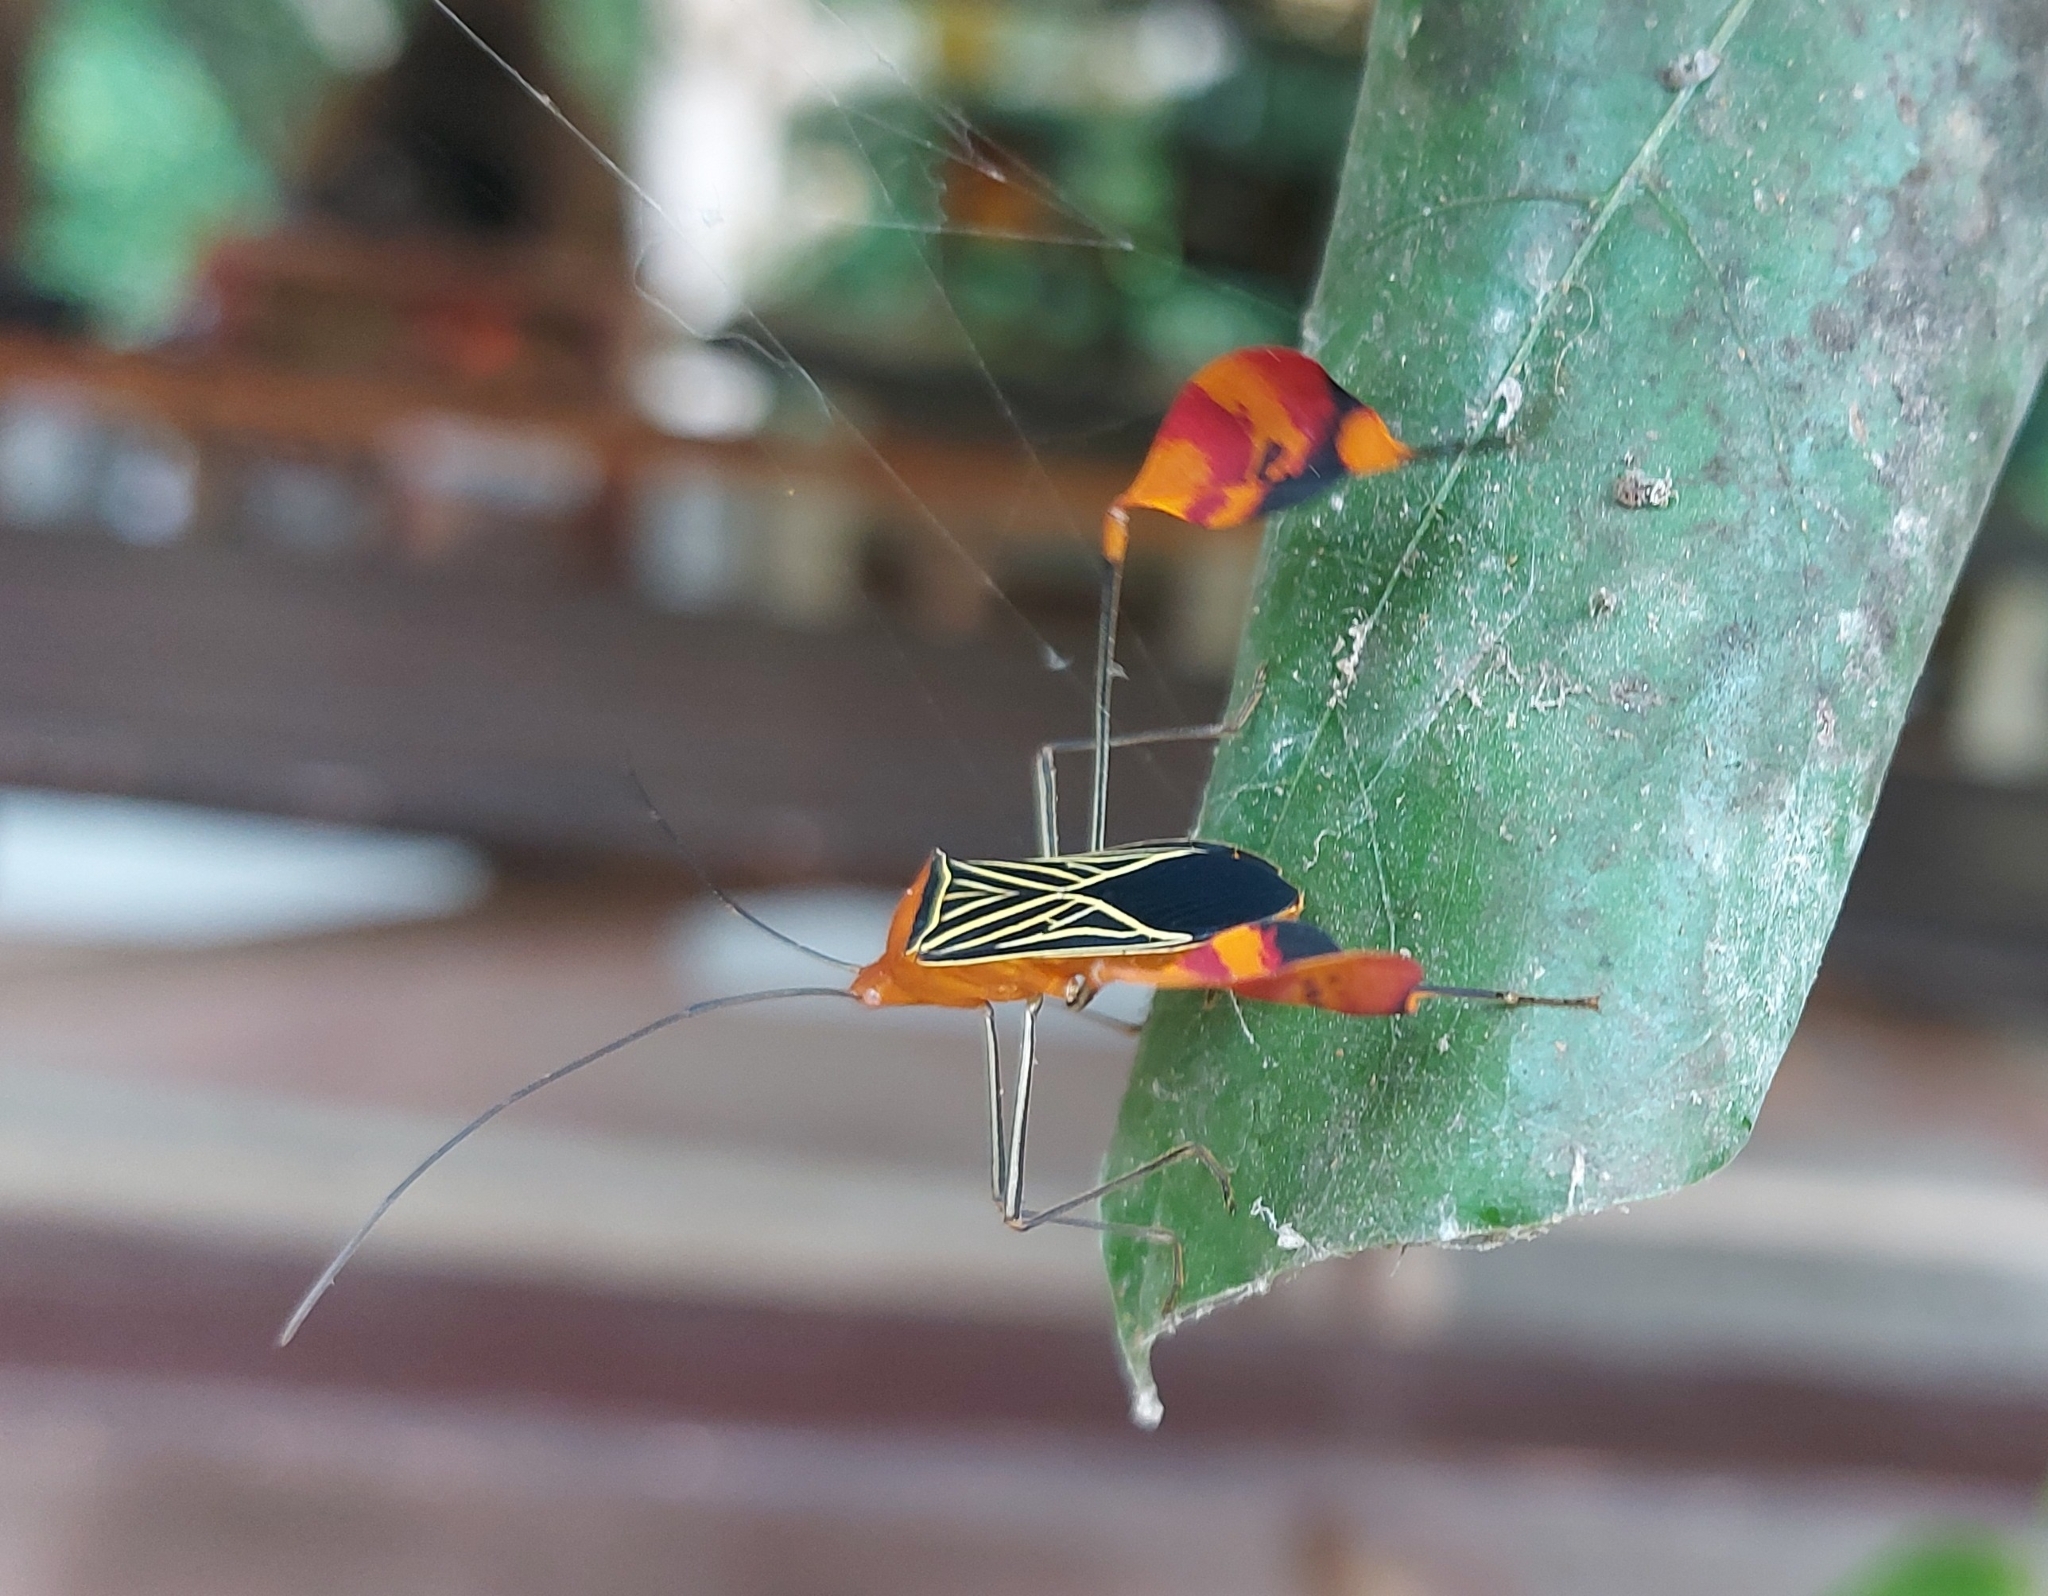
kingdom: Animalia
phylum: Arthropoda
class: Insecta
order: Hemiptera
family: Coreidae
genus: Bitta
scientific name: Bitta
